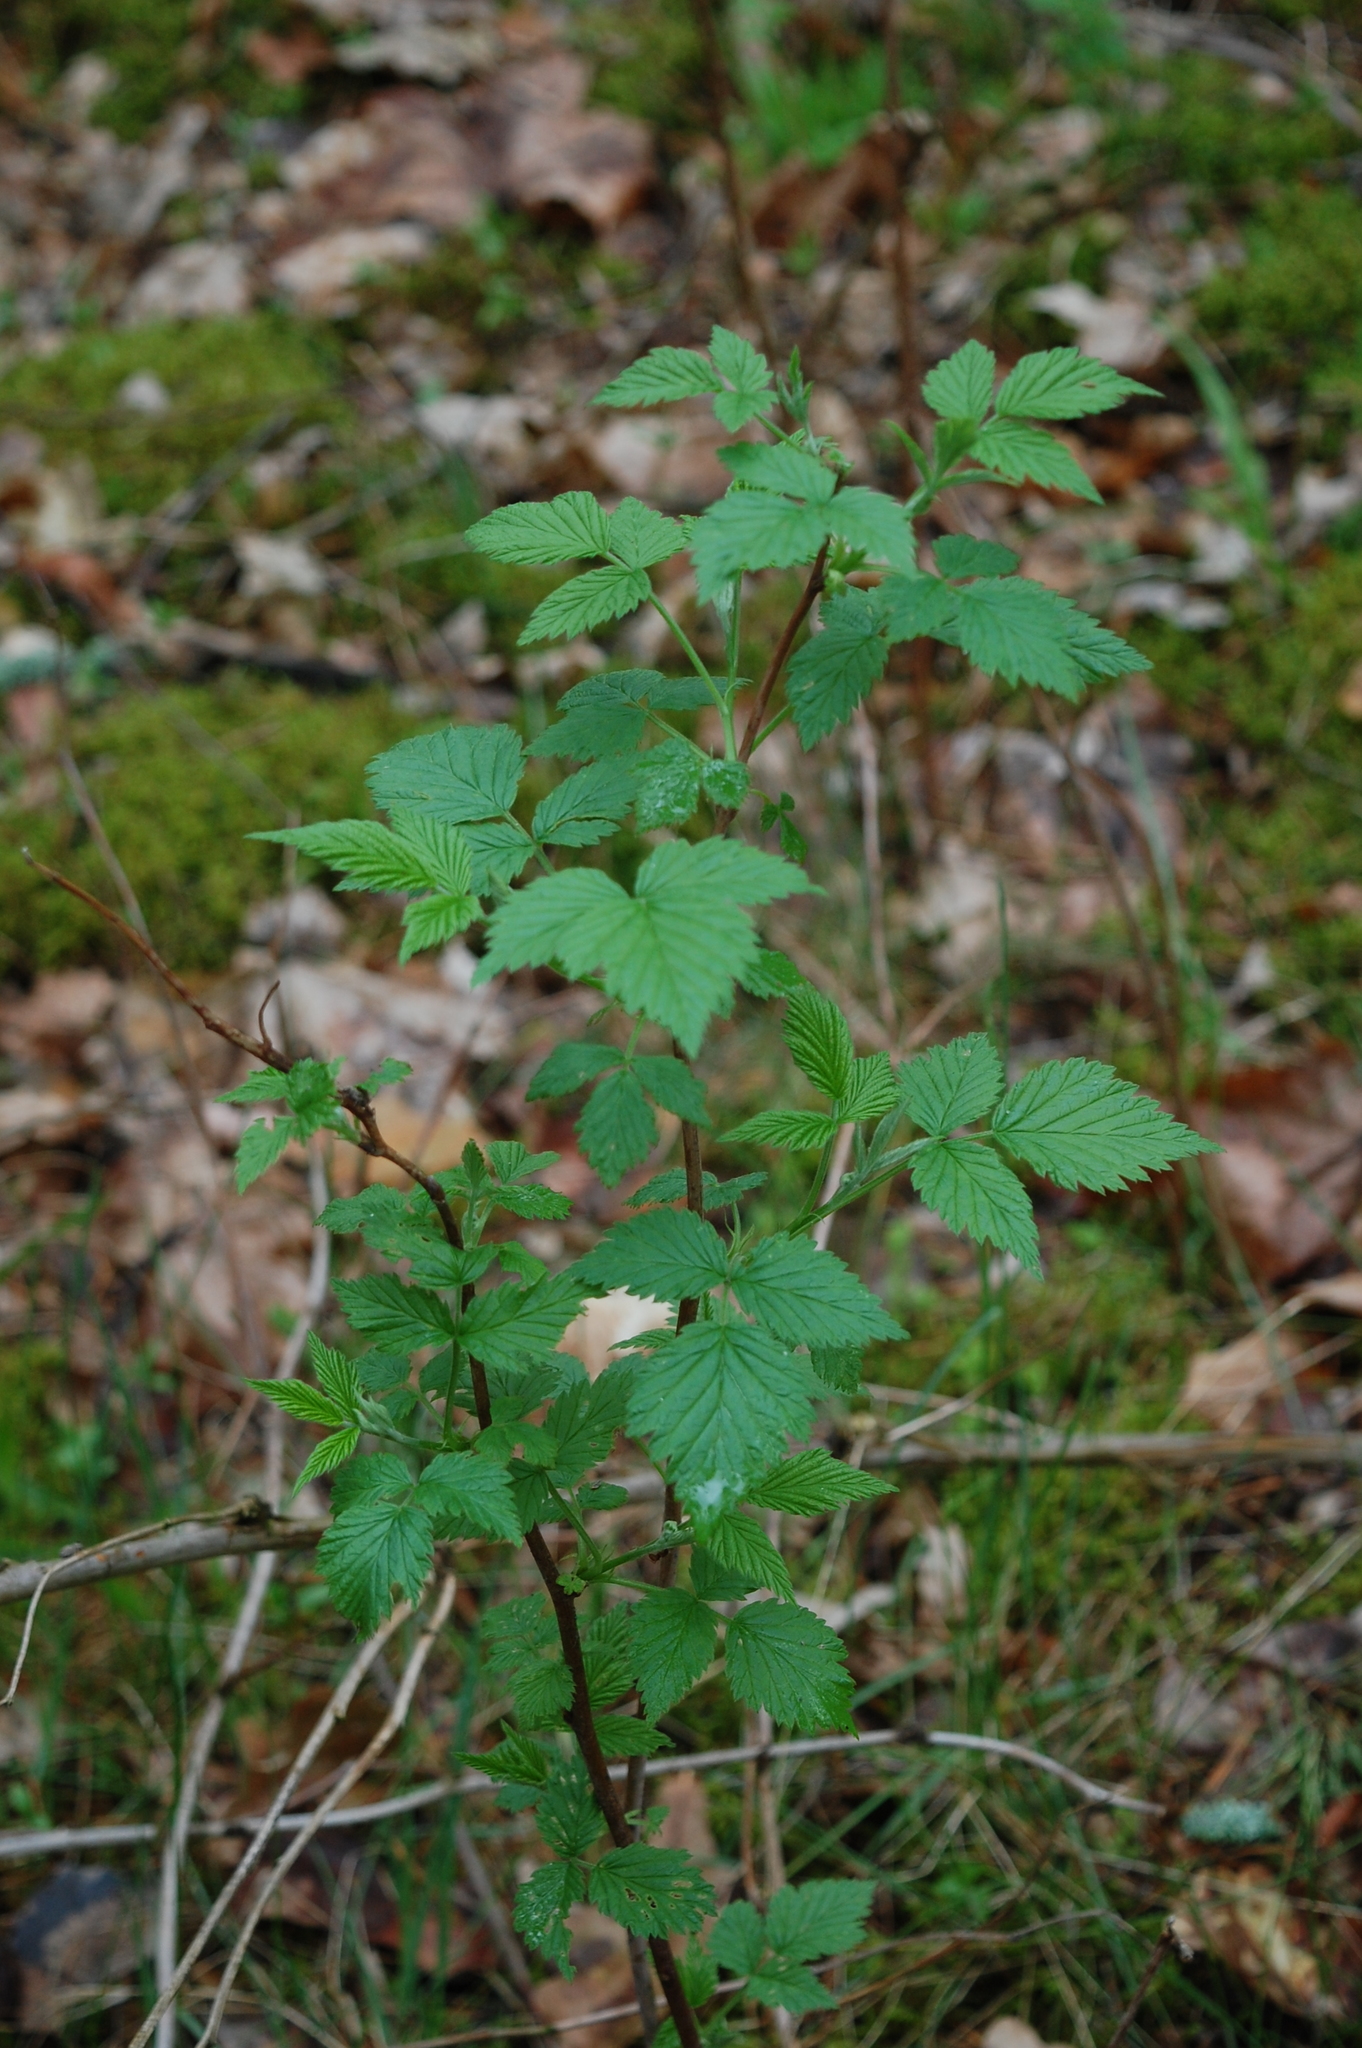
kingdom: Plantae
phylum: Tracheophyta
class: Magnoliopsida
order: Rosales
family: Rosaceae
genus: Rubus
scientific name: Rubus idaeus
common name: Raspberry
